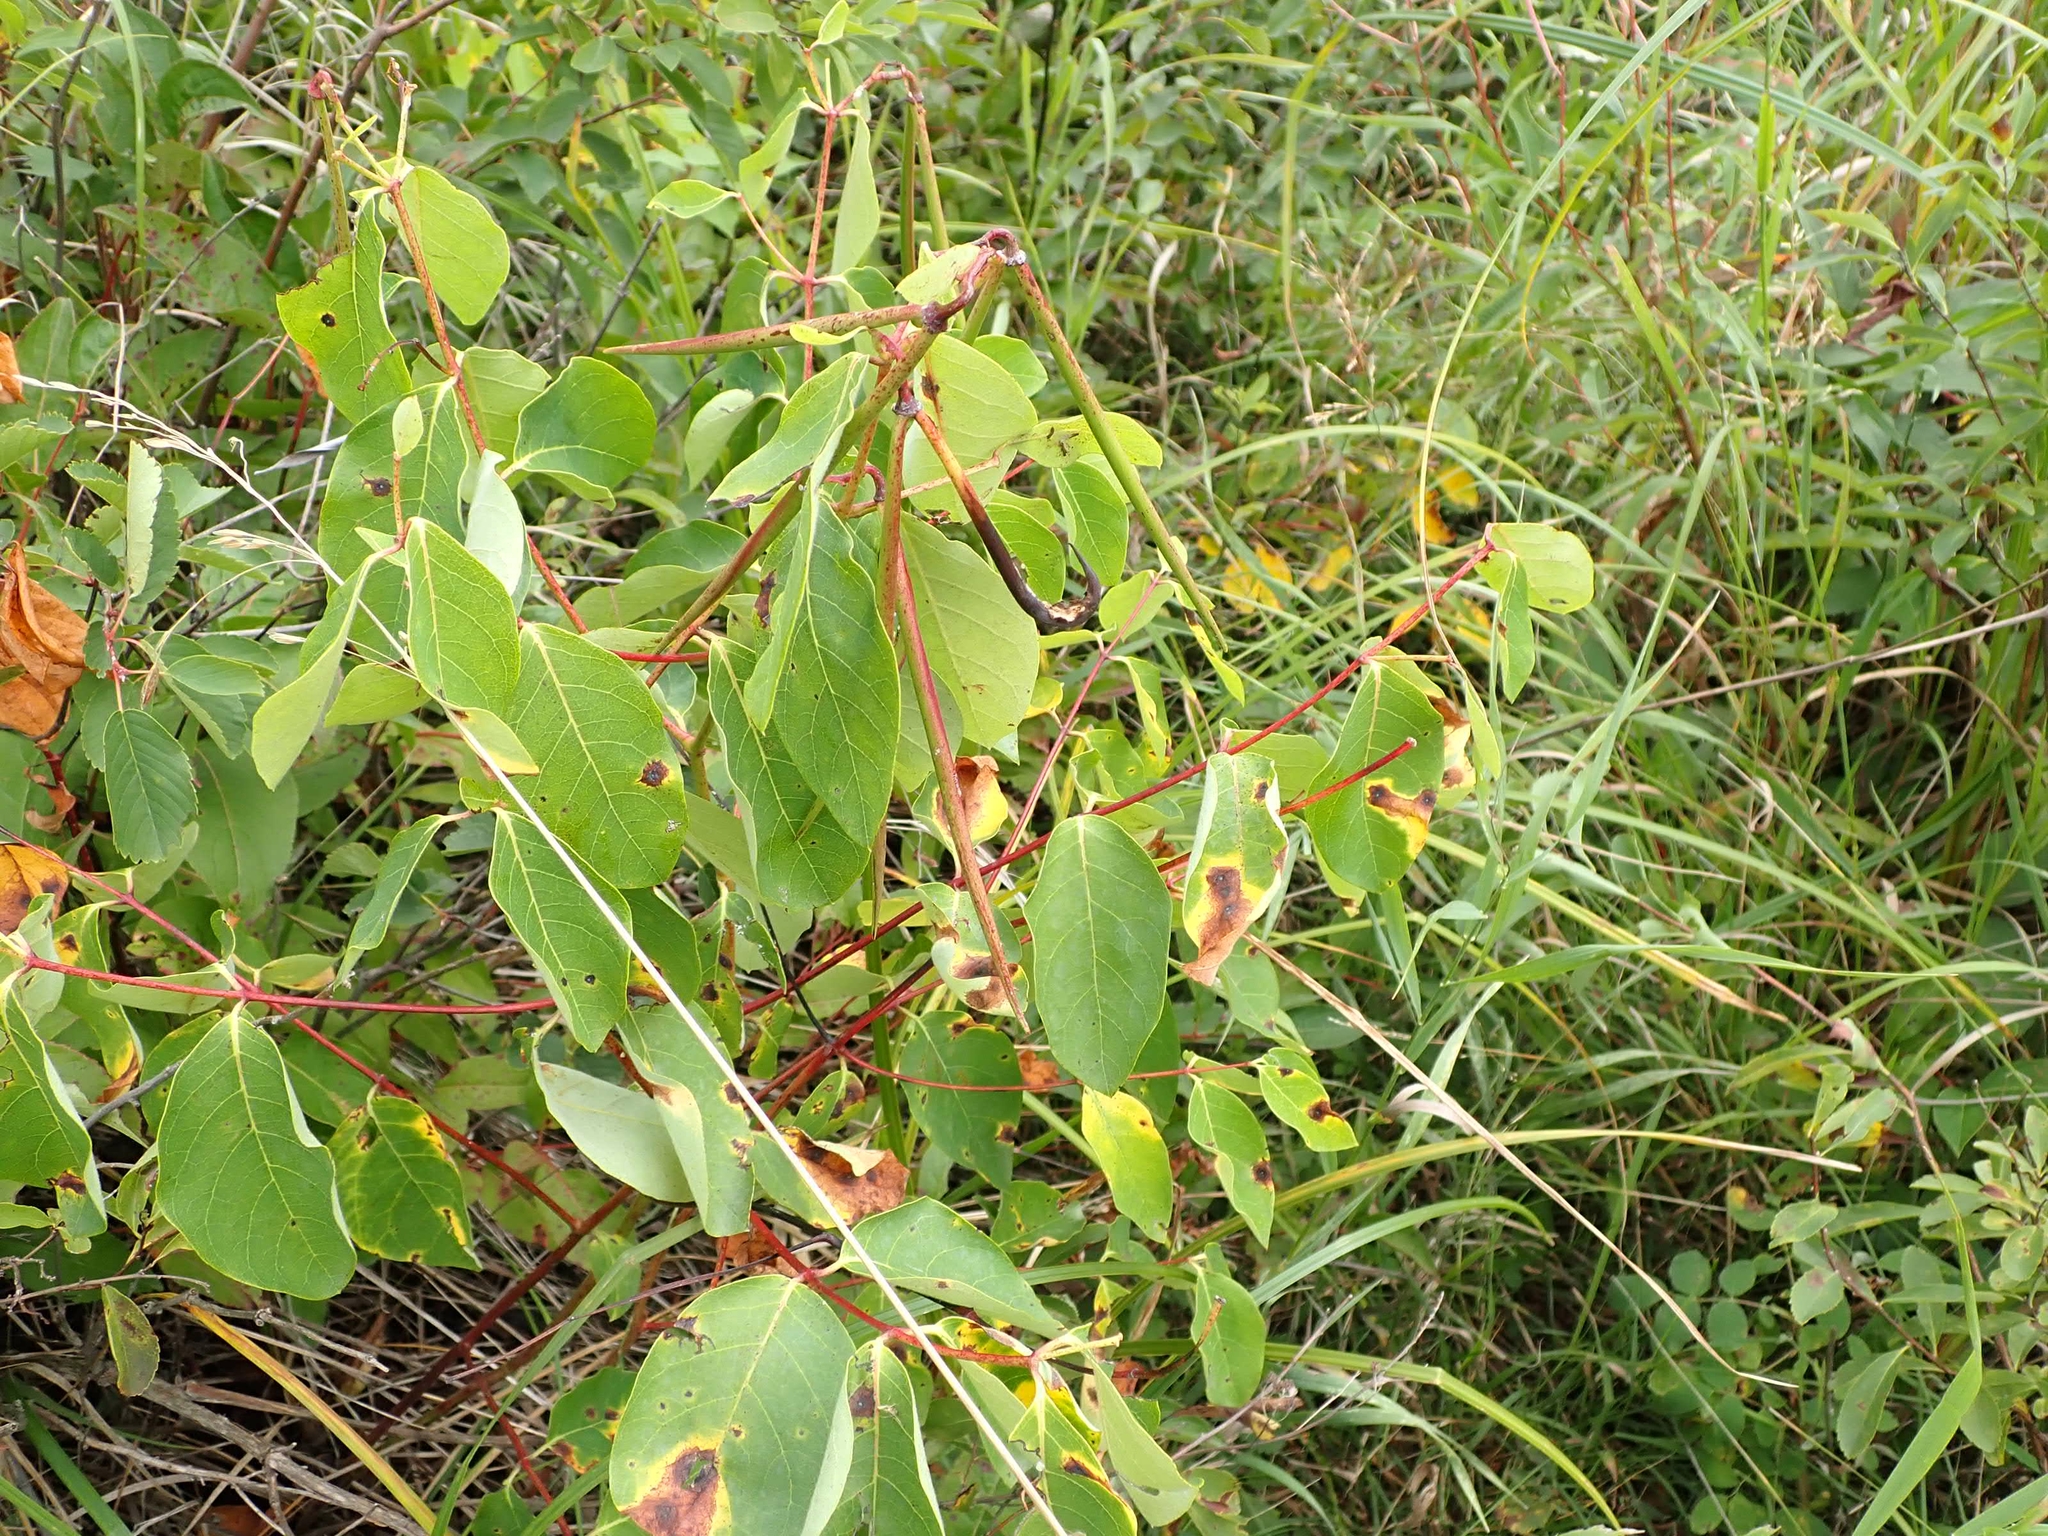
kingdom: Plantae
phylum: Tracheophyta
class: Magnoliopsida
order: Gentianales
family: Apocynaceae
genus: Apocynum
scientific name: Apocynum androsaemifolium
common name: Spreading dogbane
